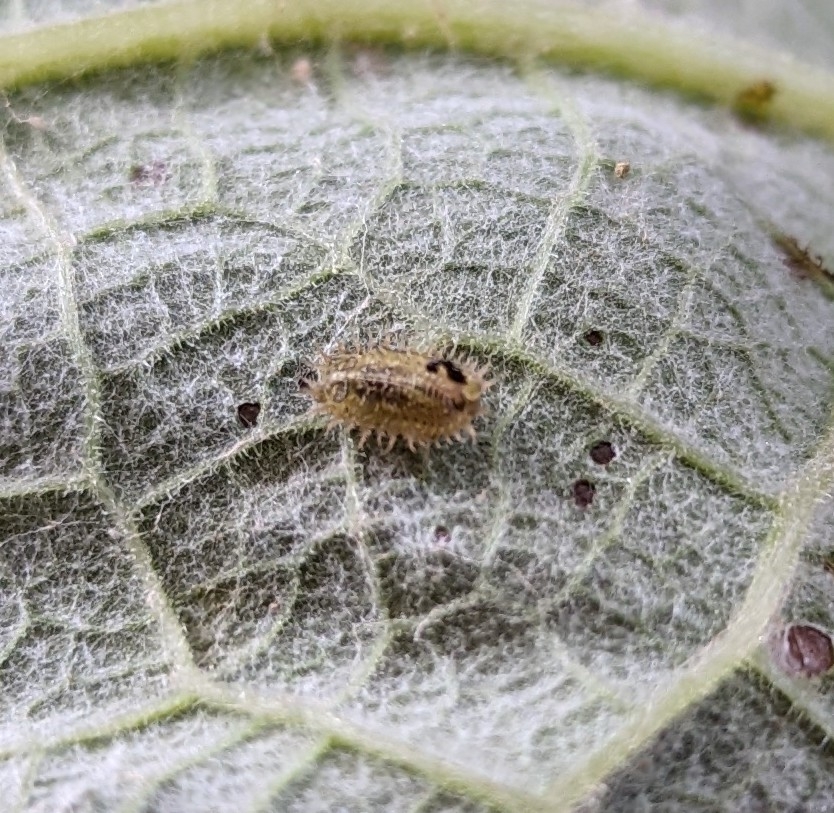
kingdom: Animalia
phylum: Arthropoda
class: Insecta
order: Coleoptera
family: Chrysomelidae
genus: Cassida
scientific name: Cassida rubiginosa
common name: Thistle tortoise beetle
